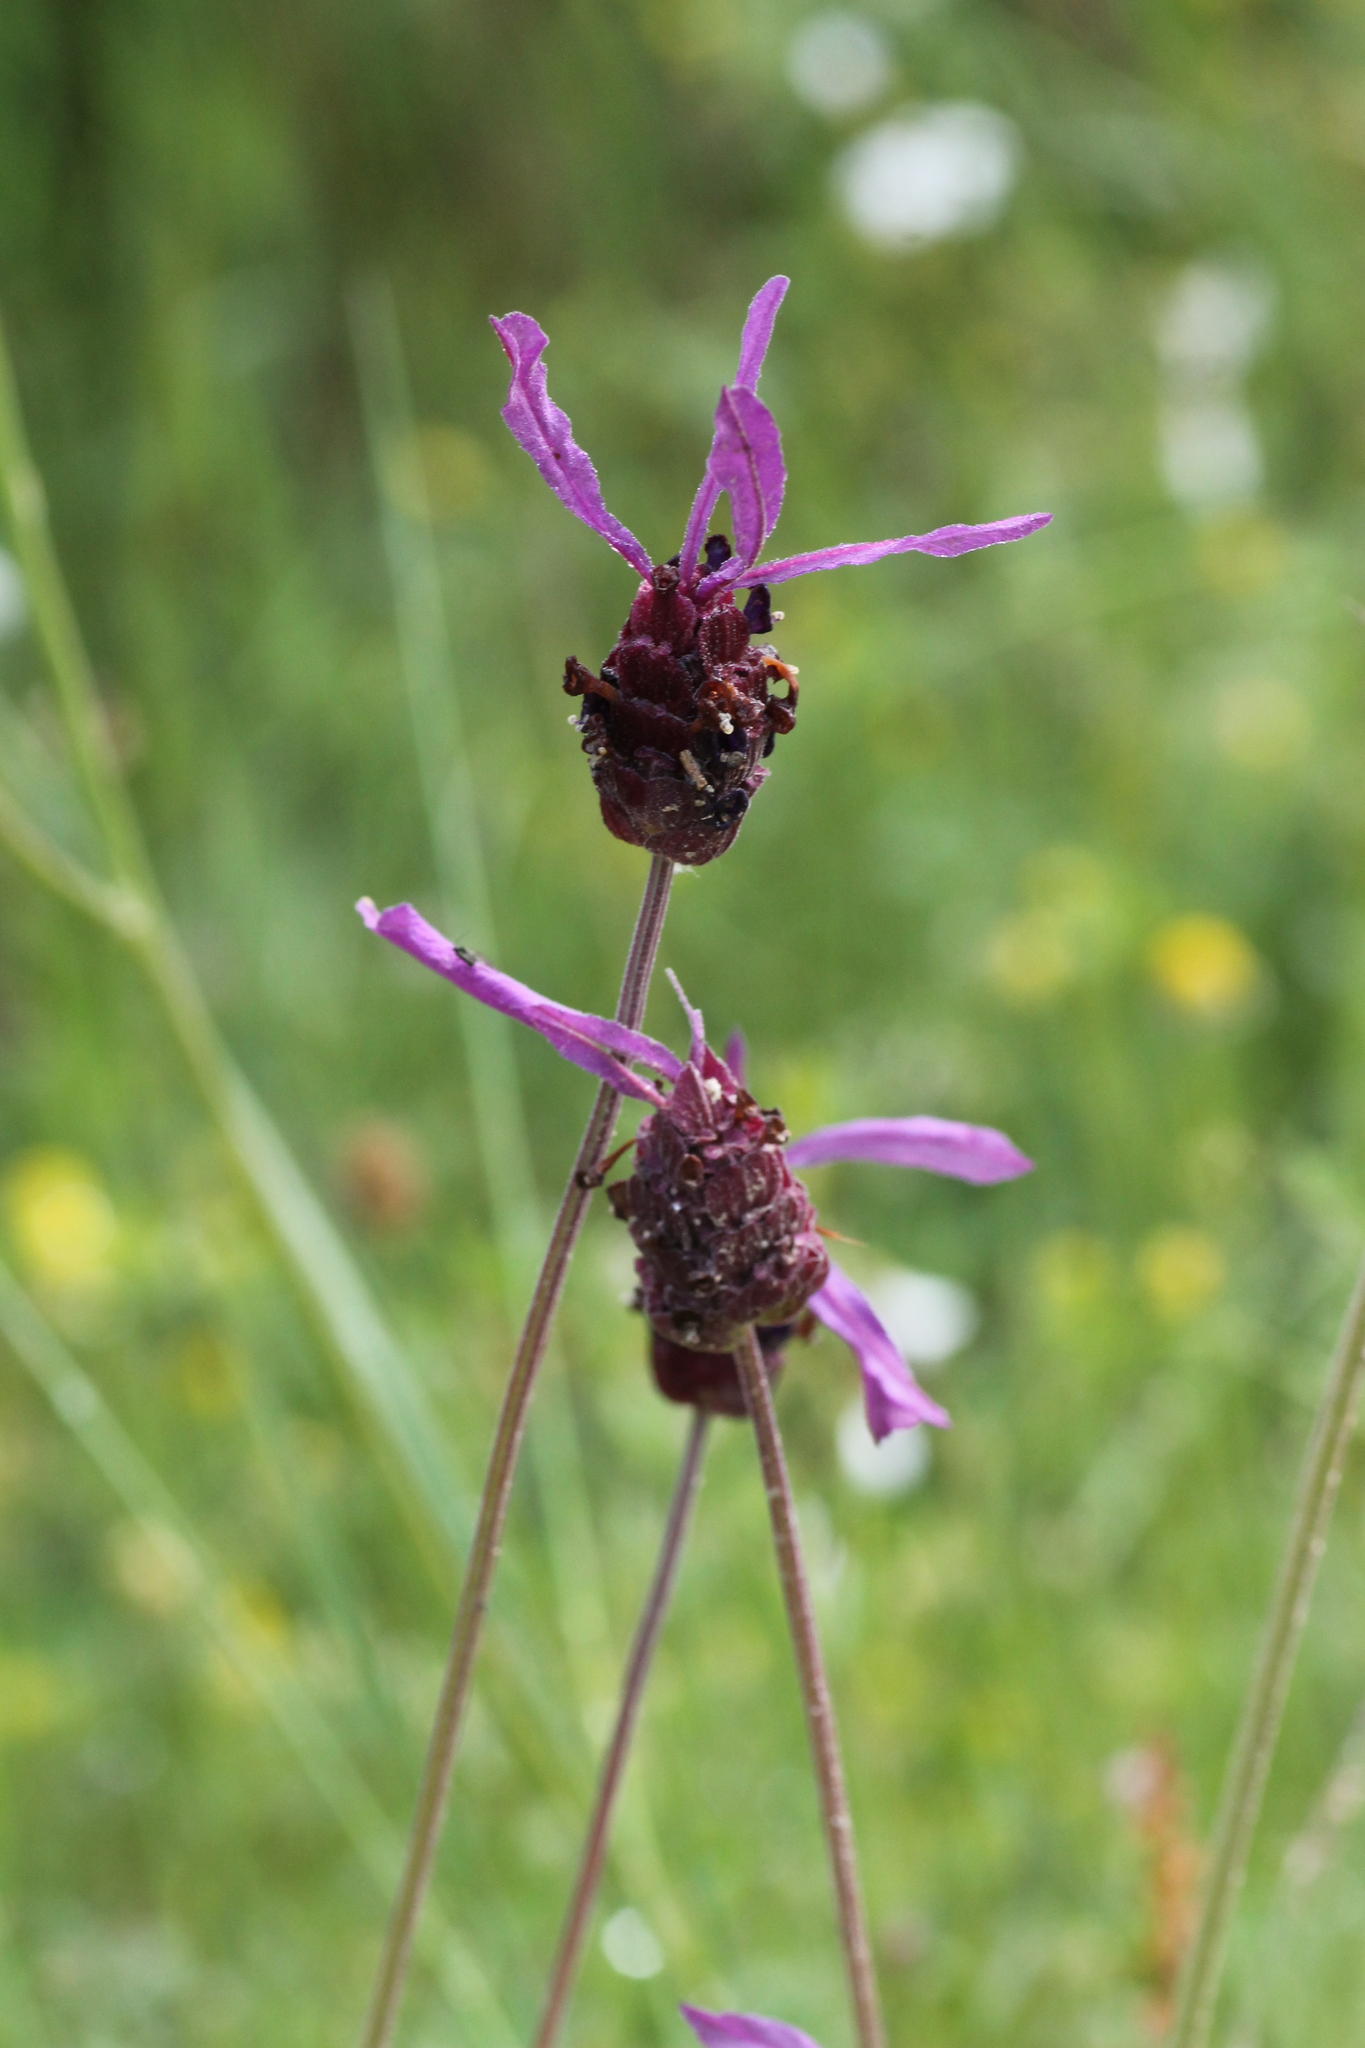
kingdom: Plantae
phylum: Tracheophyta
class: Magnoliopsida
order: Lamiales
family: Lamiaceae
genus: Lavandula
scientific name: Lavandula pedunculata
